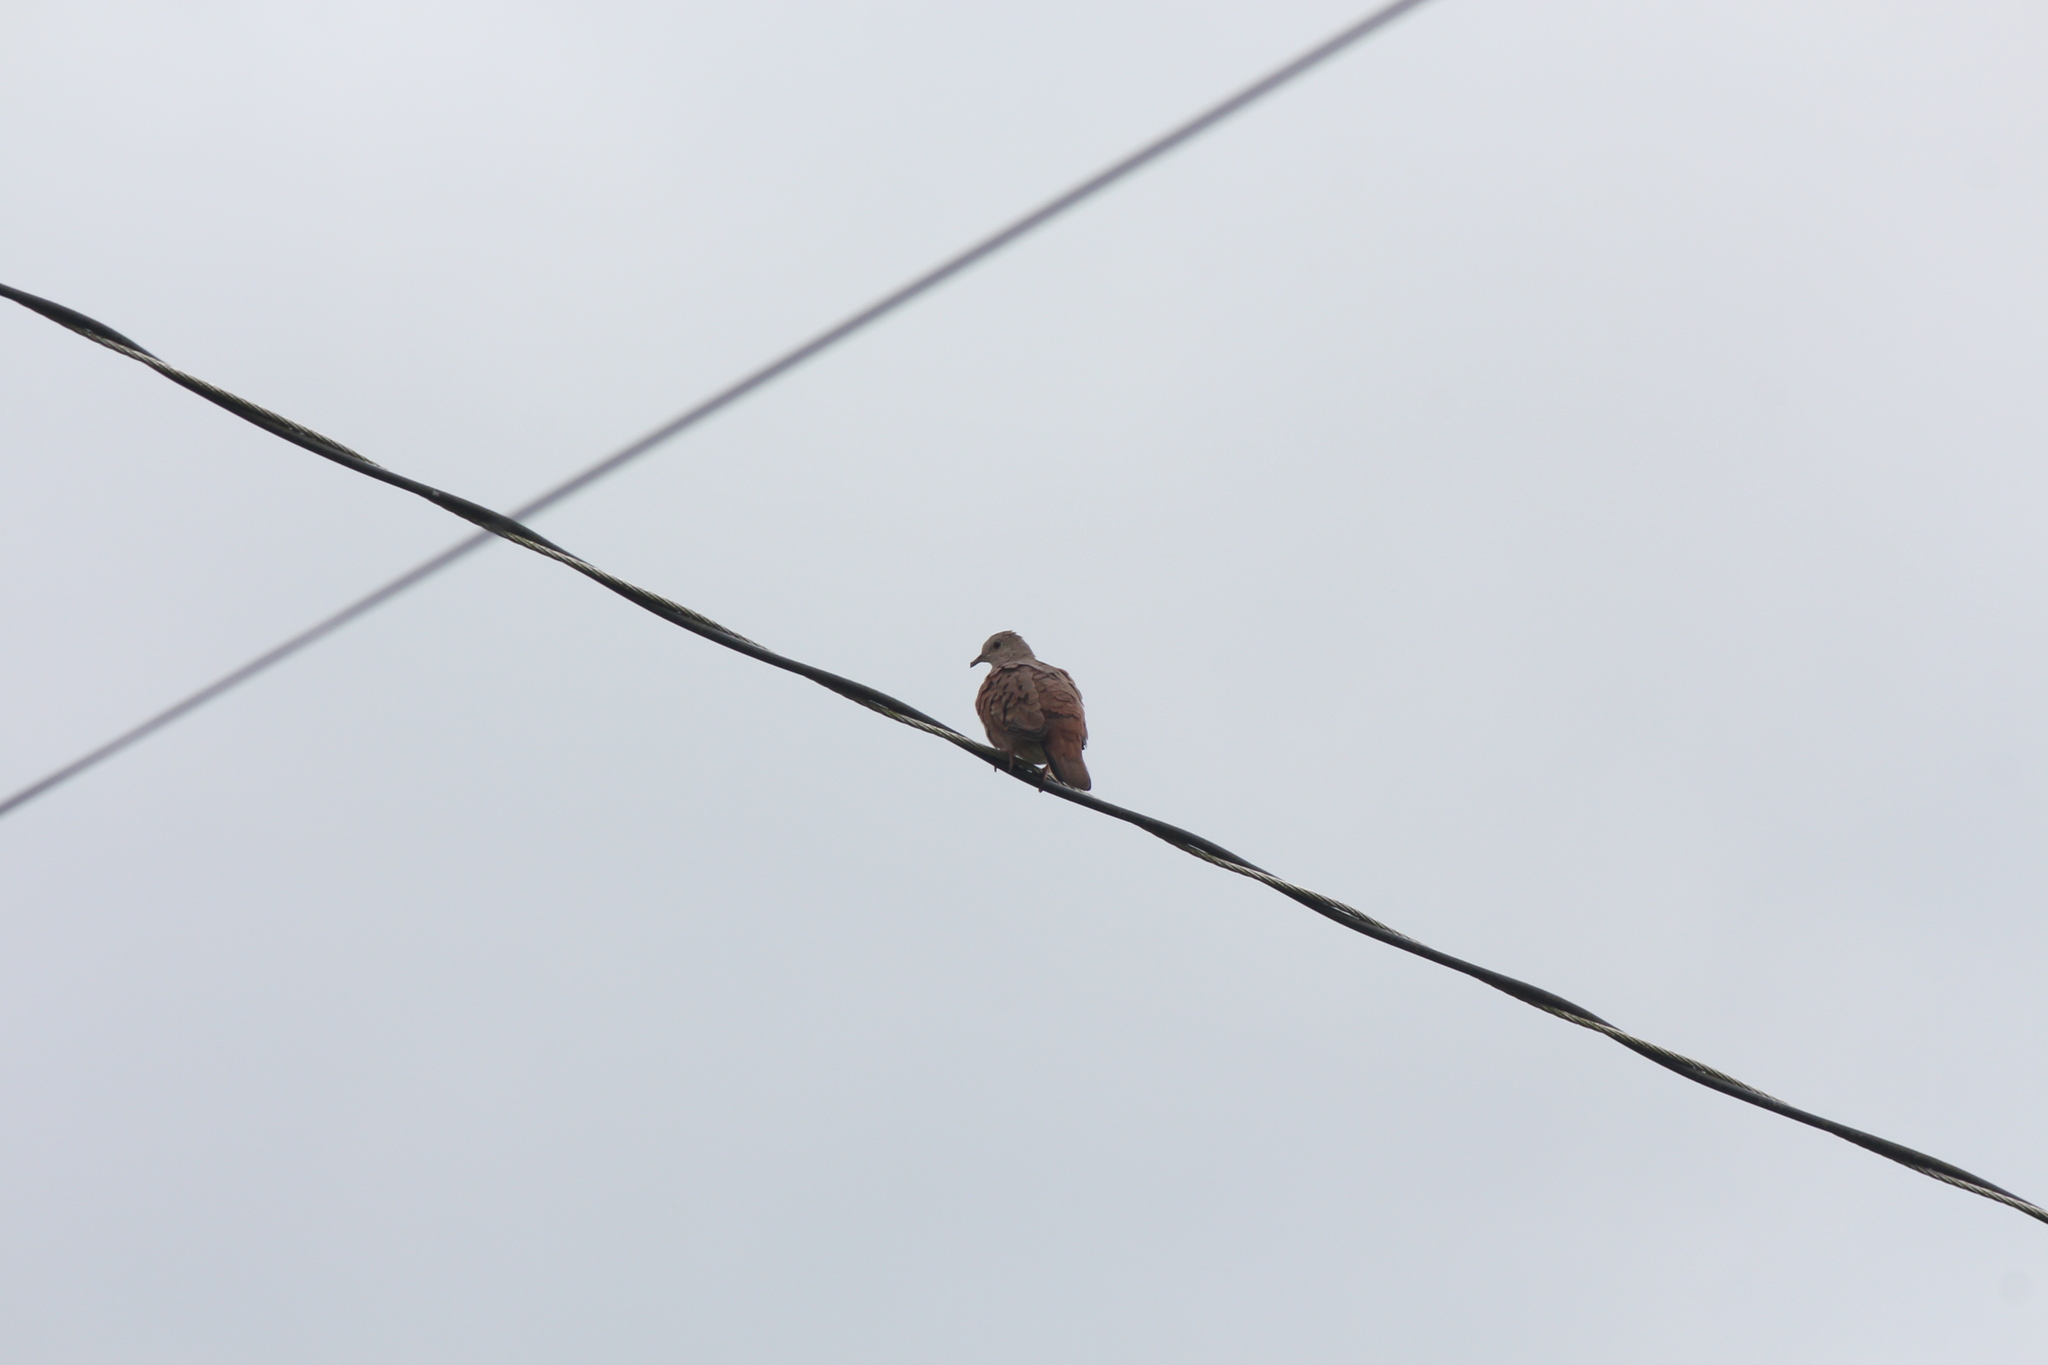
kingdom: Animalia
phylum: Chordata
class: Aves
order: Columbiformes
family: Columbidae
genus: Columbina
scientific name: Columbina talpacoti
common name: Ruddy ground dove
